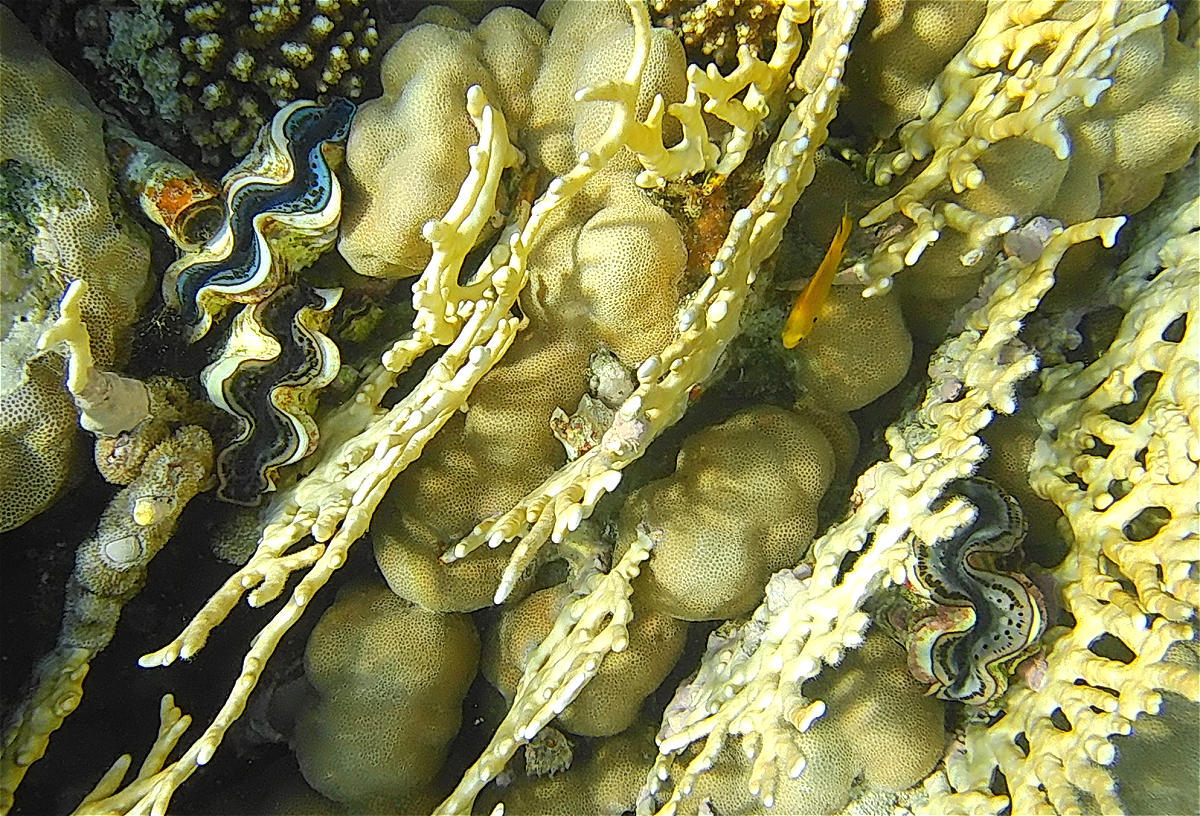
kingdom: Animalia
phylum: Mollusca
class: Bivalvia
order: Cardiida
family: Cardiidae
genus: Tridacna
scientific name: Tridacna maxima
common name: Small giant clam
